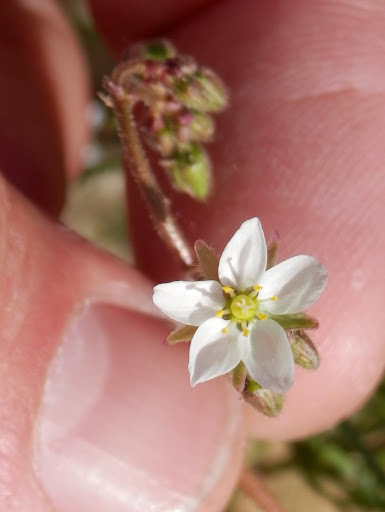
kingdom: Plantae
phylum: Tracheophyta
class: Magnoliopsida
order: Caryophyllales
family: Caryophyllaceae
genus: Spergula
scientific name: Spergula arvensis
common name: Corn spurrey
